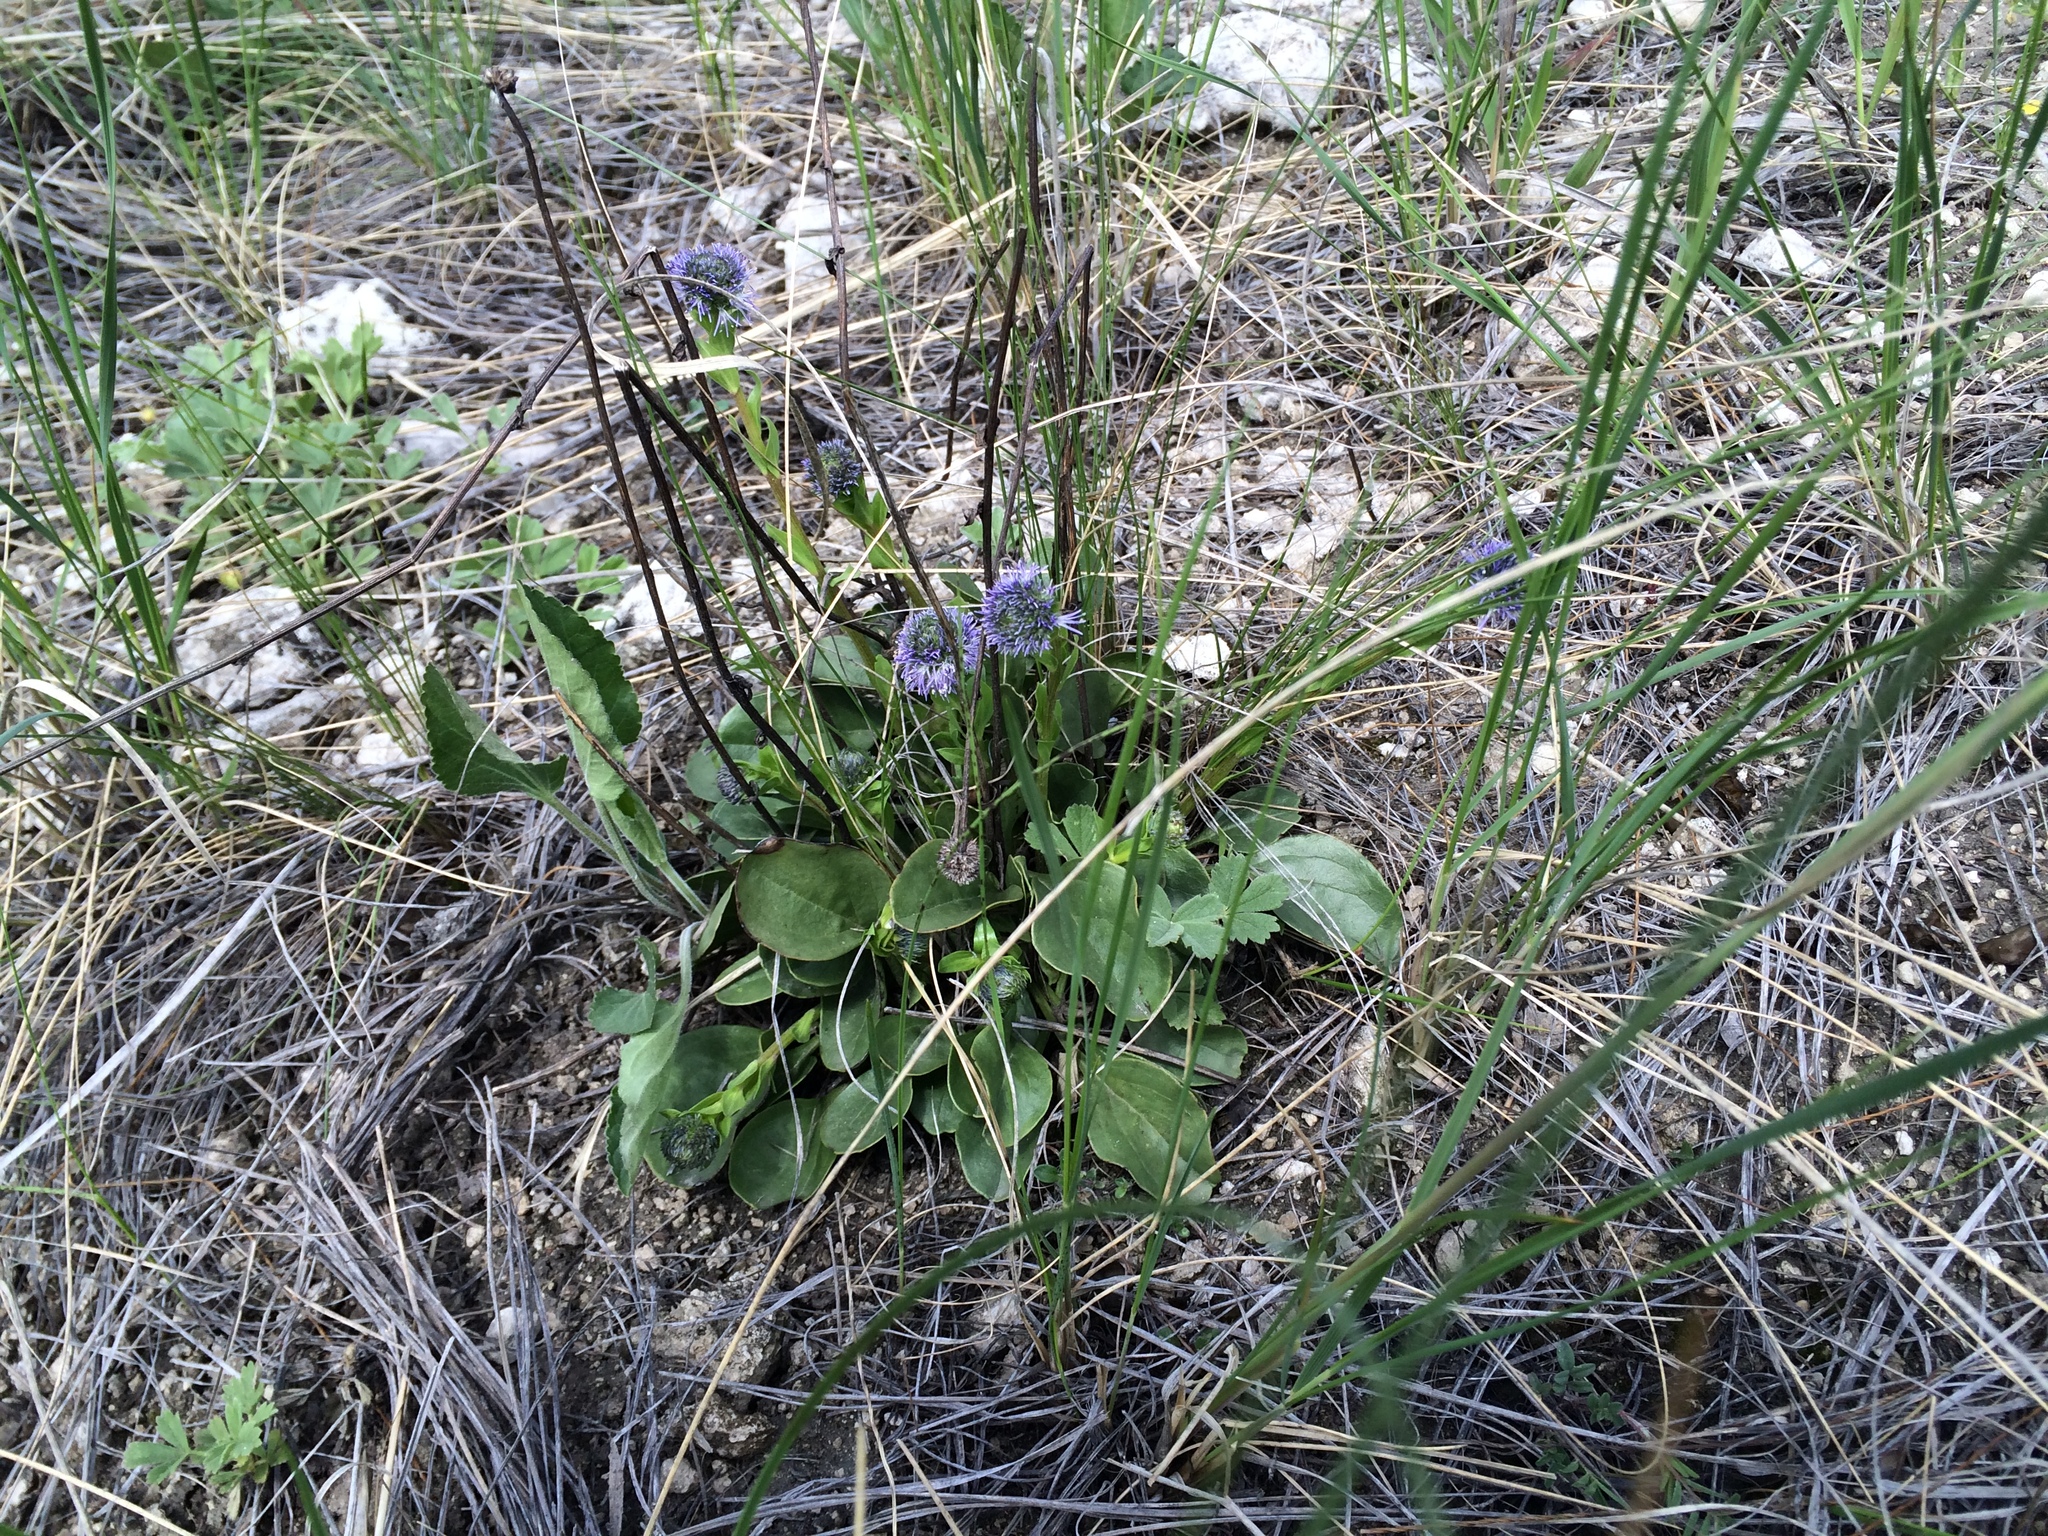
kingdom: Plantae
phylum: Tracheophyta
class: Magnoliopsida
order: Lamiales
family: Plantaginaceae
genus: Globularia
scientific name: Globularia bisnagarica
